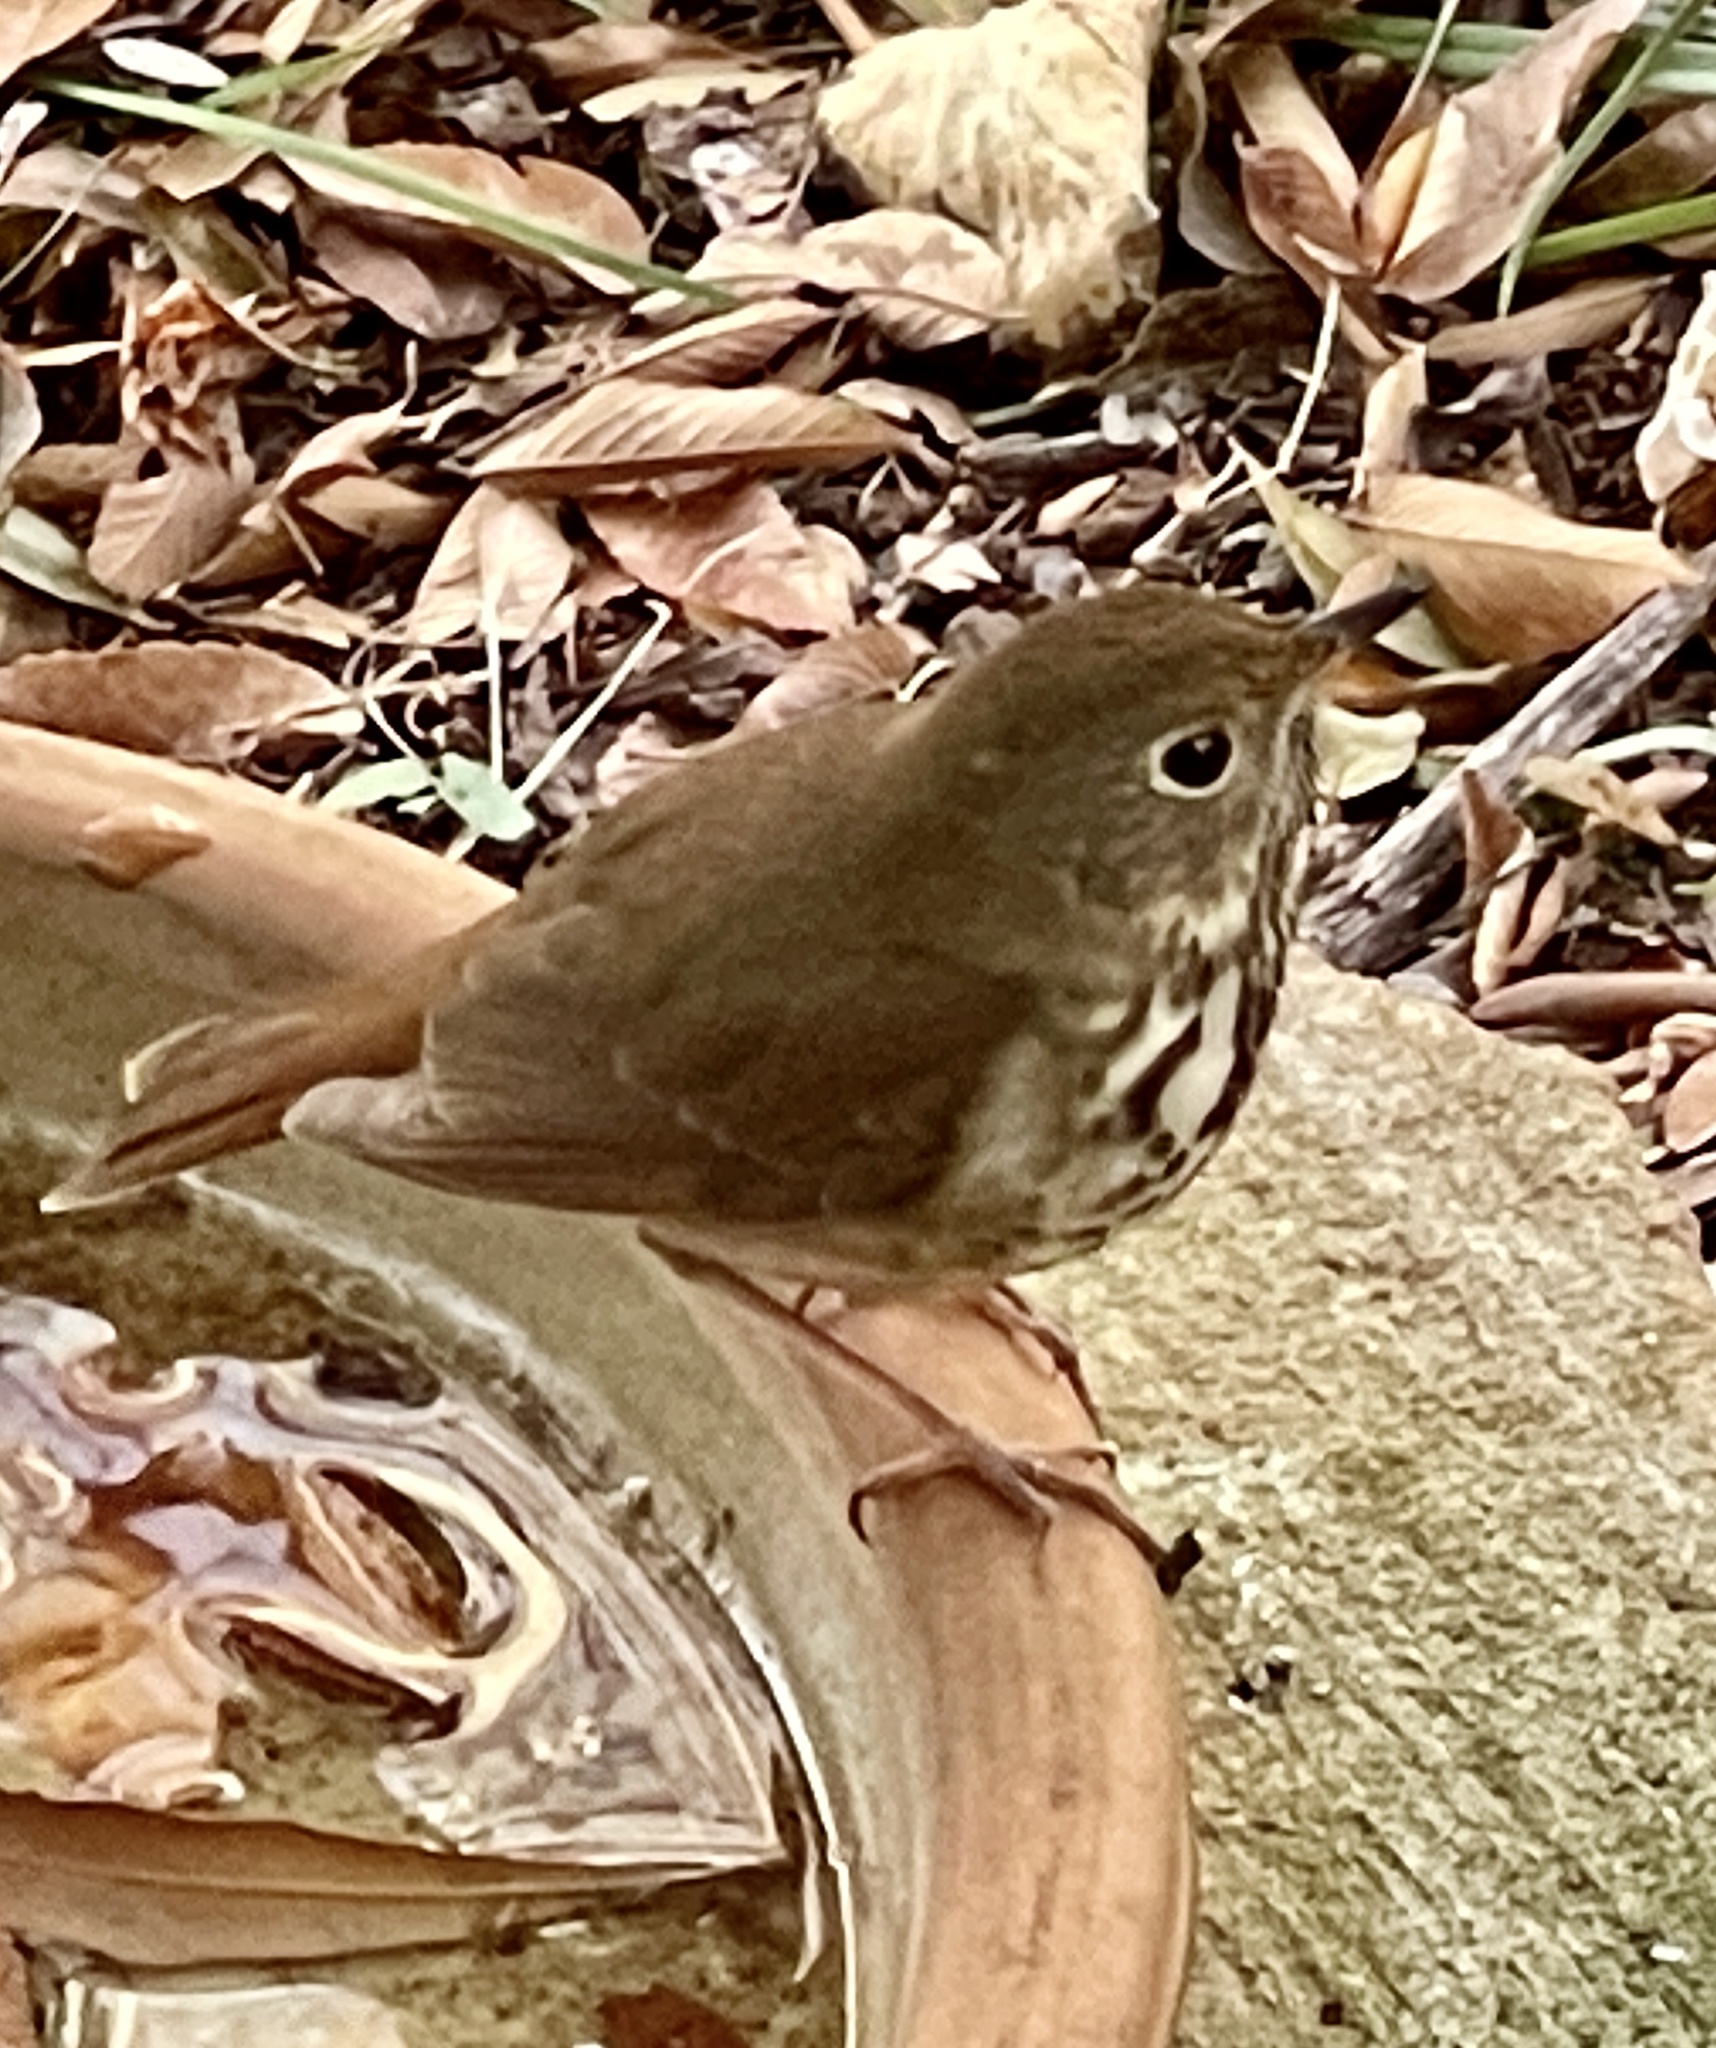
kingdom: Animalia
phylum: Chordata
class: Aves
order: Passeriformes
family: Turdidae
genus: Catharus
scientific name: Catharus guttatus
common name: Hermit thrush
